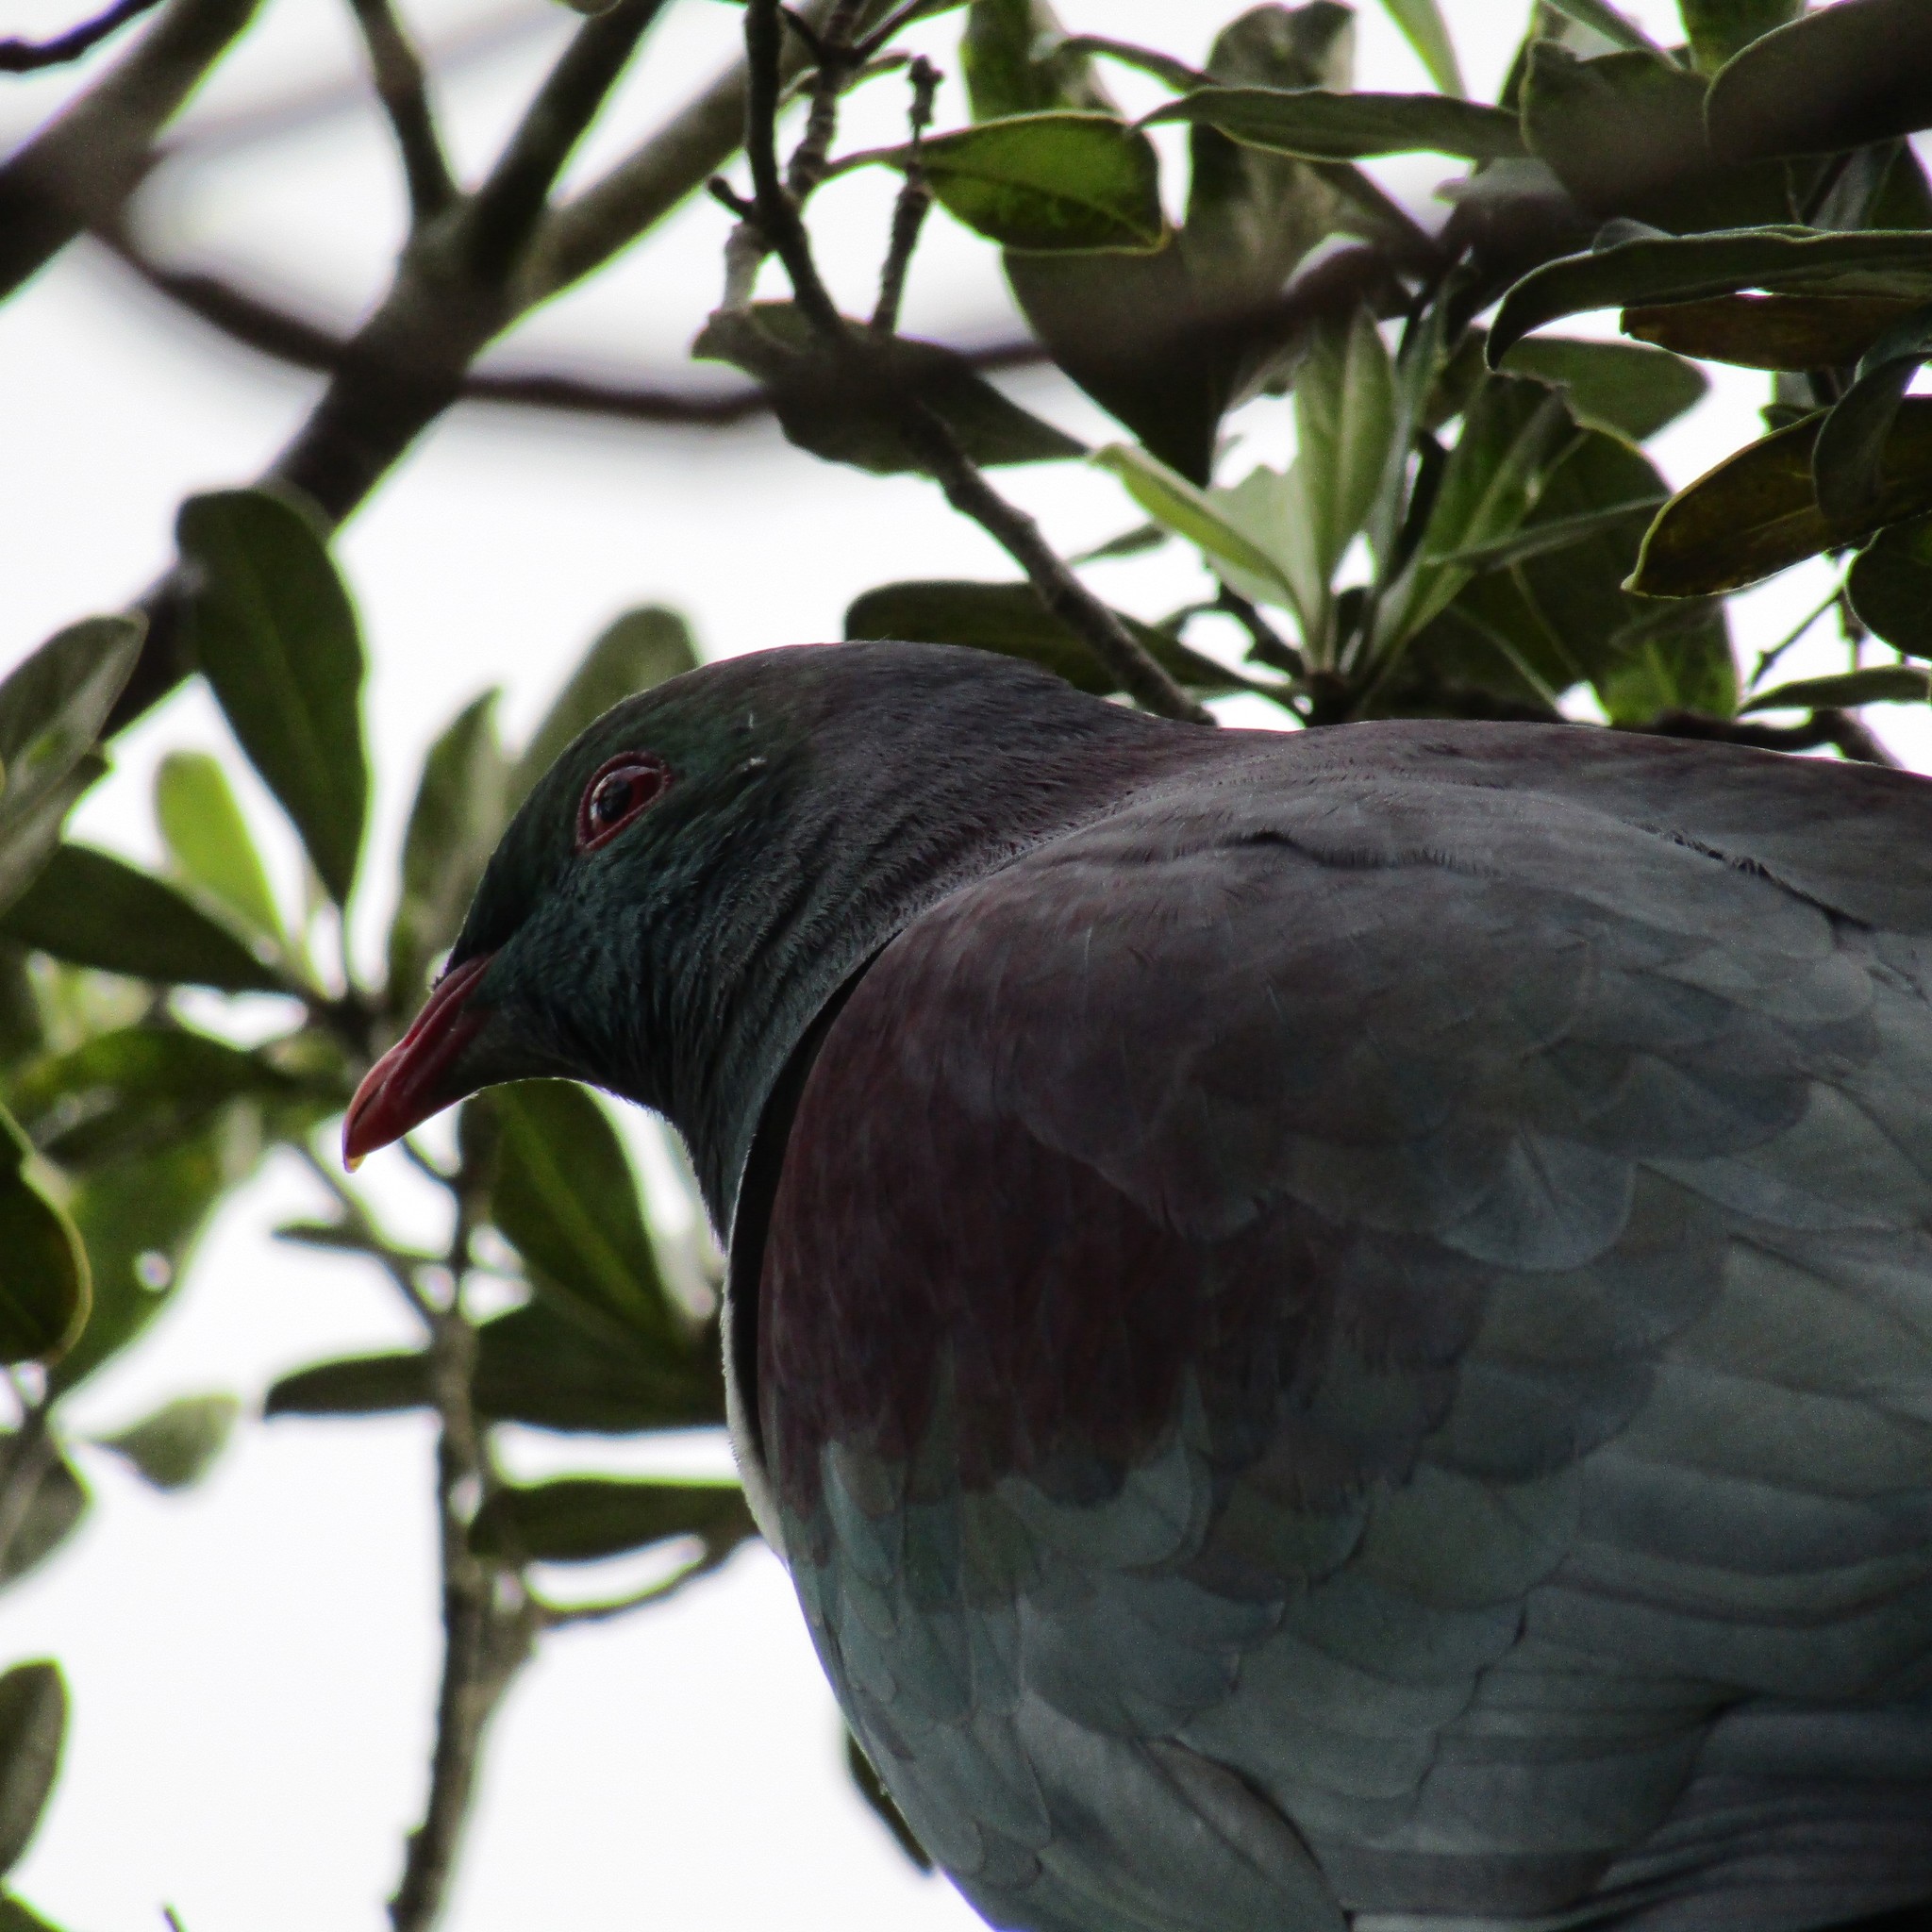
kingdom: Animalia
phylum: Chordata
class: Aves
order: Columbiformes
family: Columbidae
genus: Hemiphaga
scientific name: Hemiphaga novaeseelandiae
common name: New zealand pigeon
